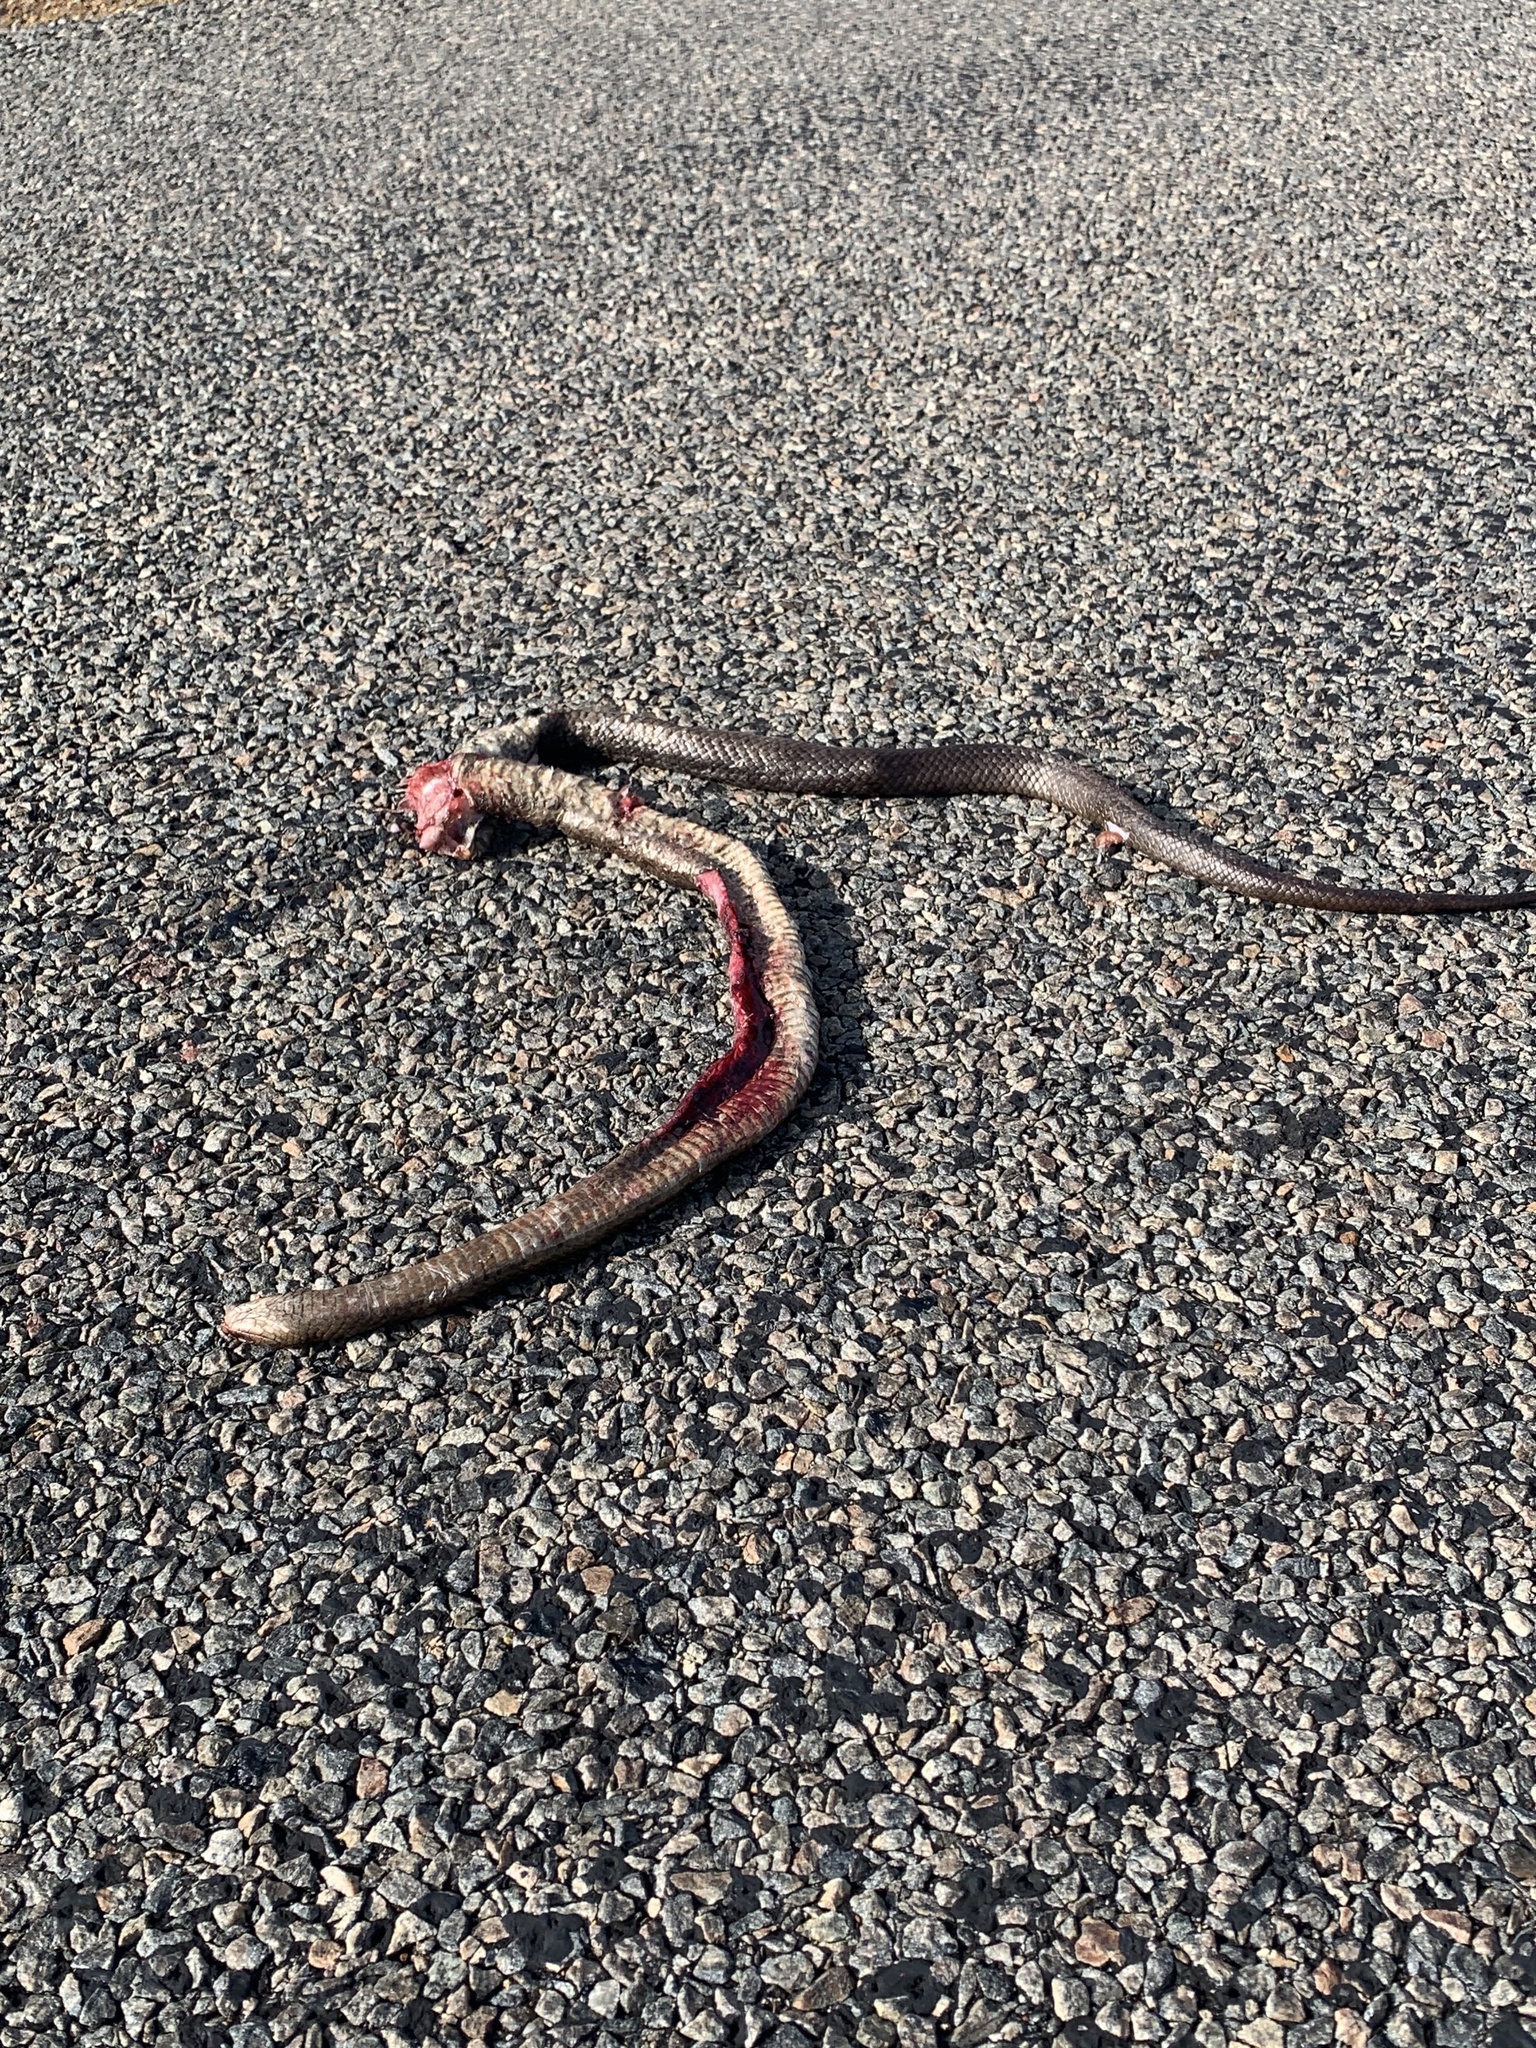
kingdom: Animalia
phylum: Chordata
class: Squamata
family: Elapidae
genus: Pseudonaja
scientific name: Pseudonaja affinis
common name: Dugite
